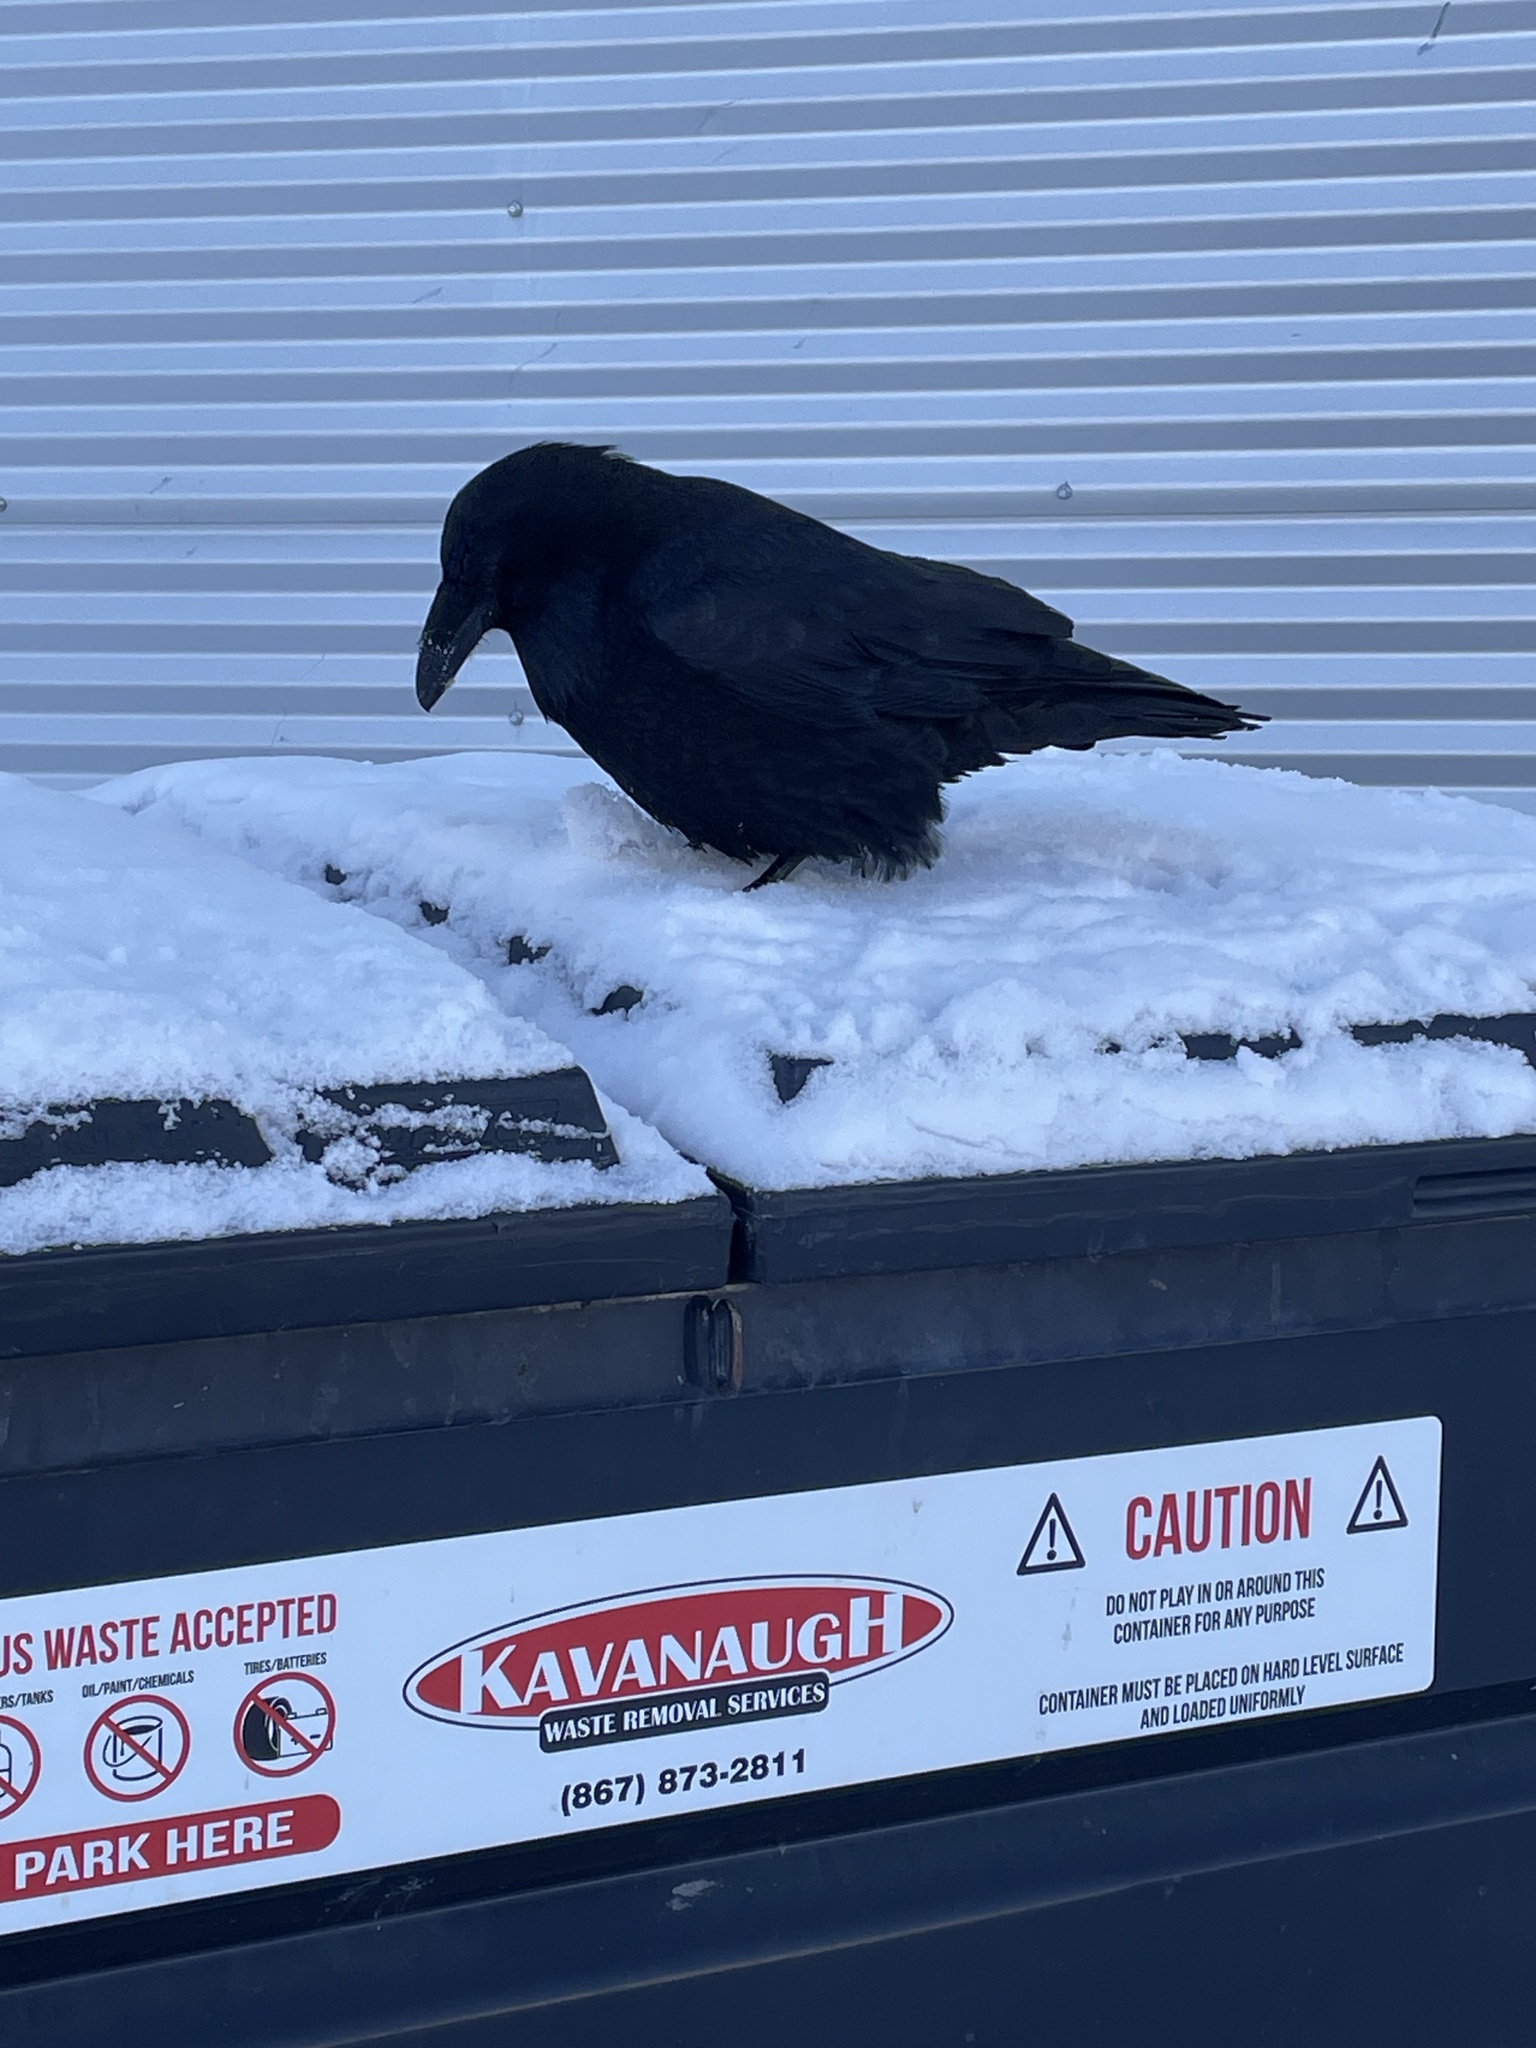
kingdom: Animalia
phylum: Chordata
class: Aves
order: Passeriformes
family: Corvidae
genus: Corvus
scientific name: Corvus corax
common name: Common raven
